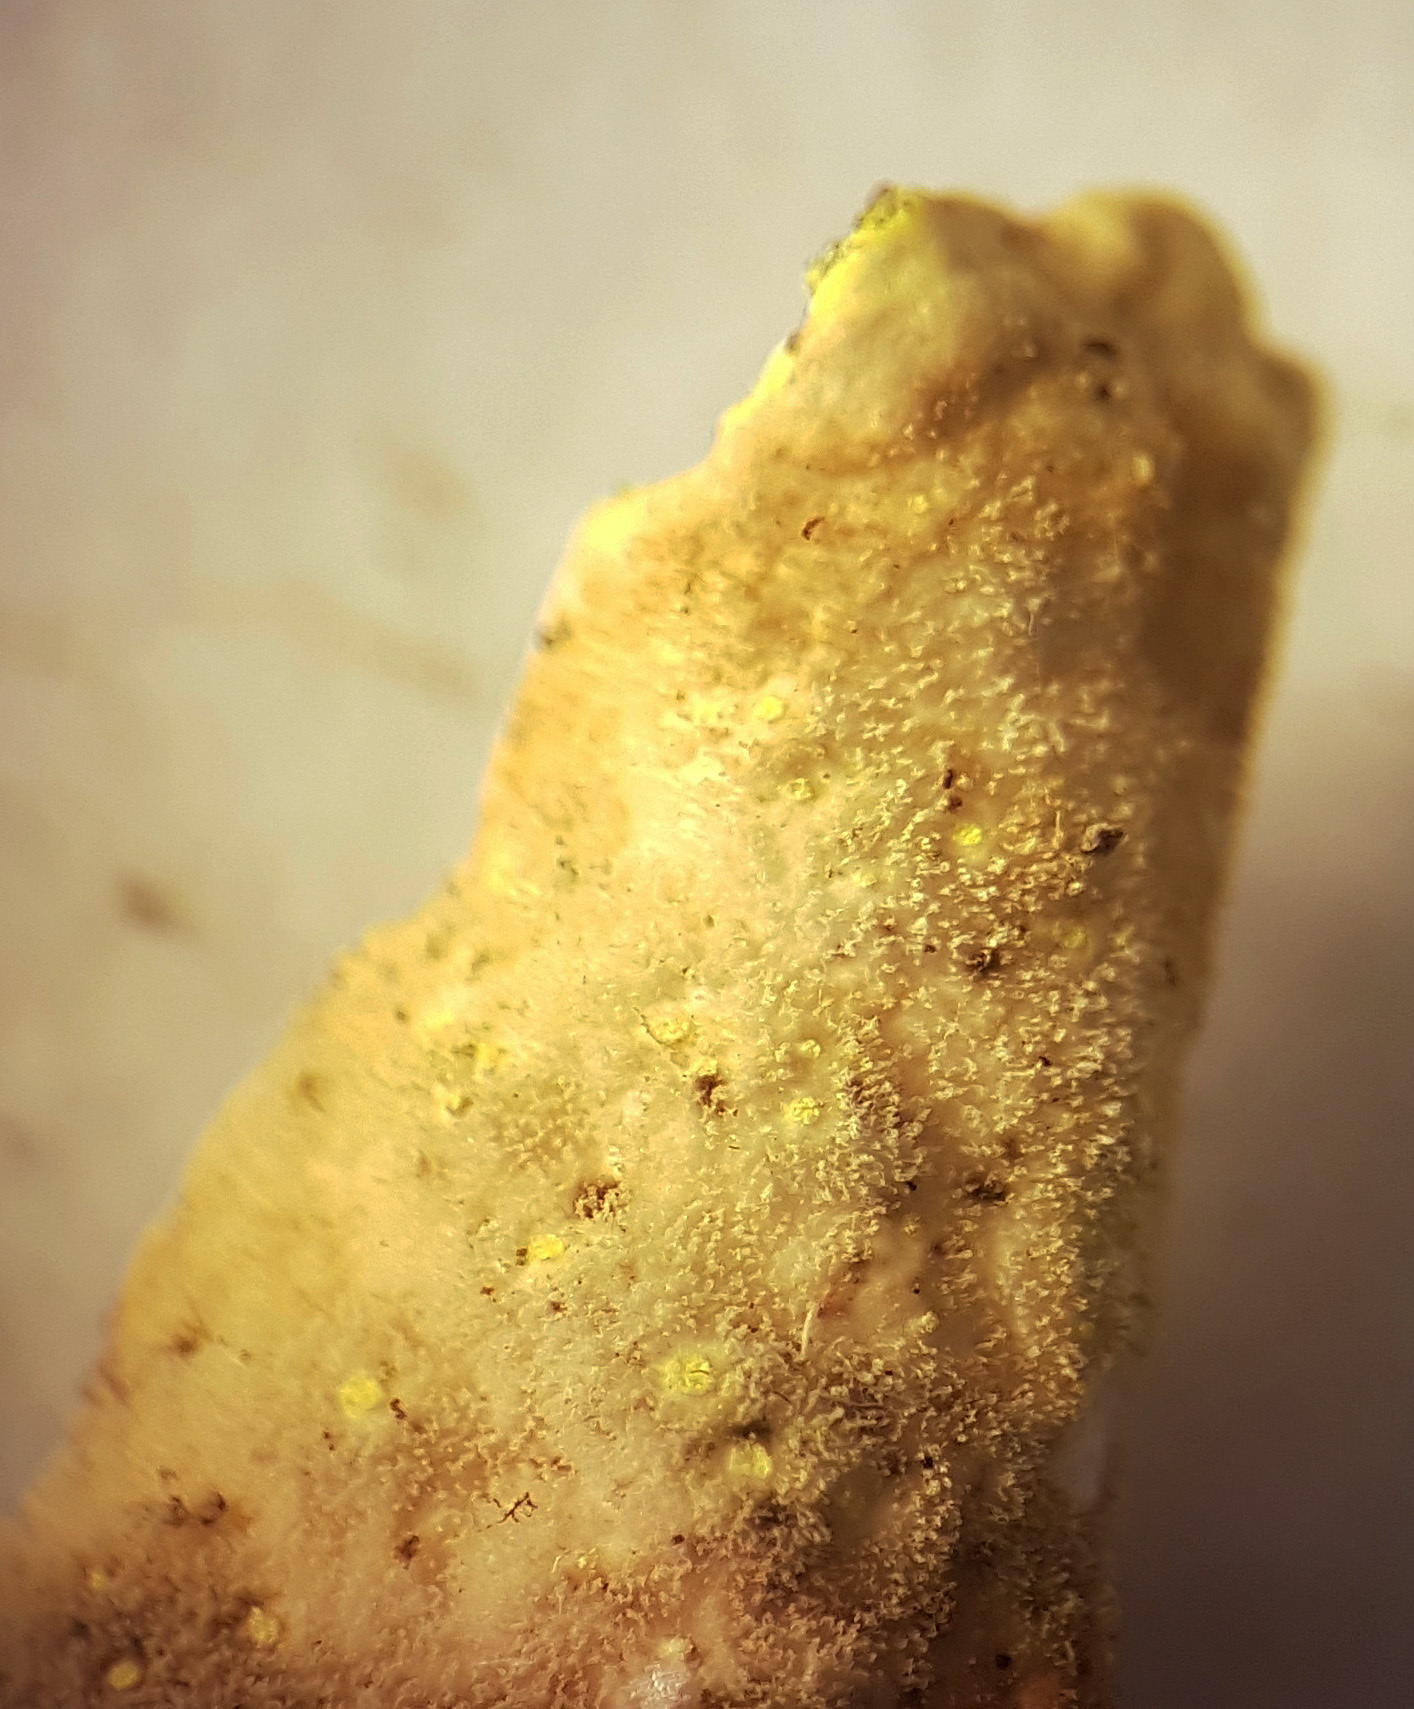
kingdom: Fungi
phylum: Ascomycota
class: Lecanoromycetes
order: Peltigerales
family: Lobariaceae
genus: Pseudocyphellaria
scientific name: Pseudocyphellaria crocata
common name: Golden specklebelly
